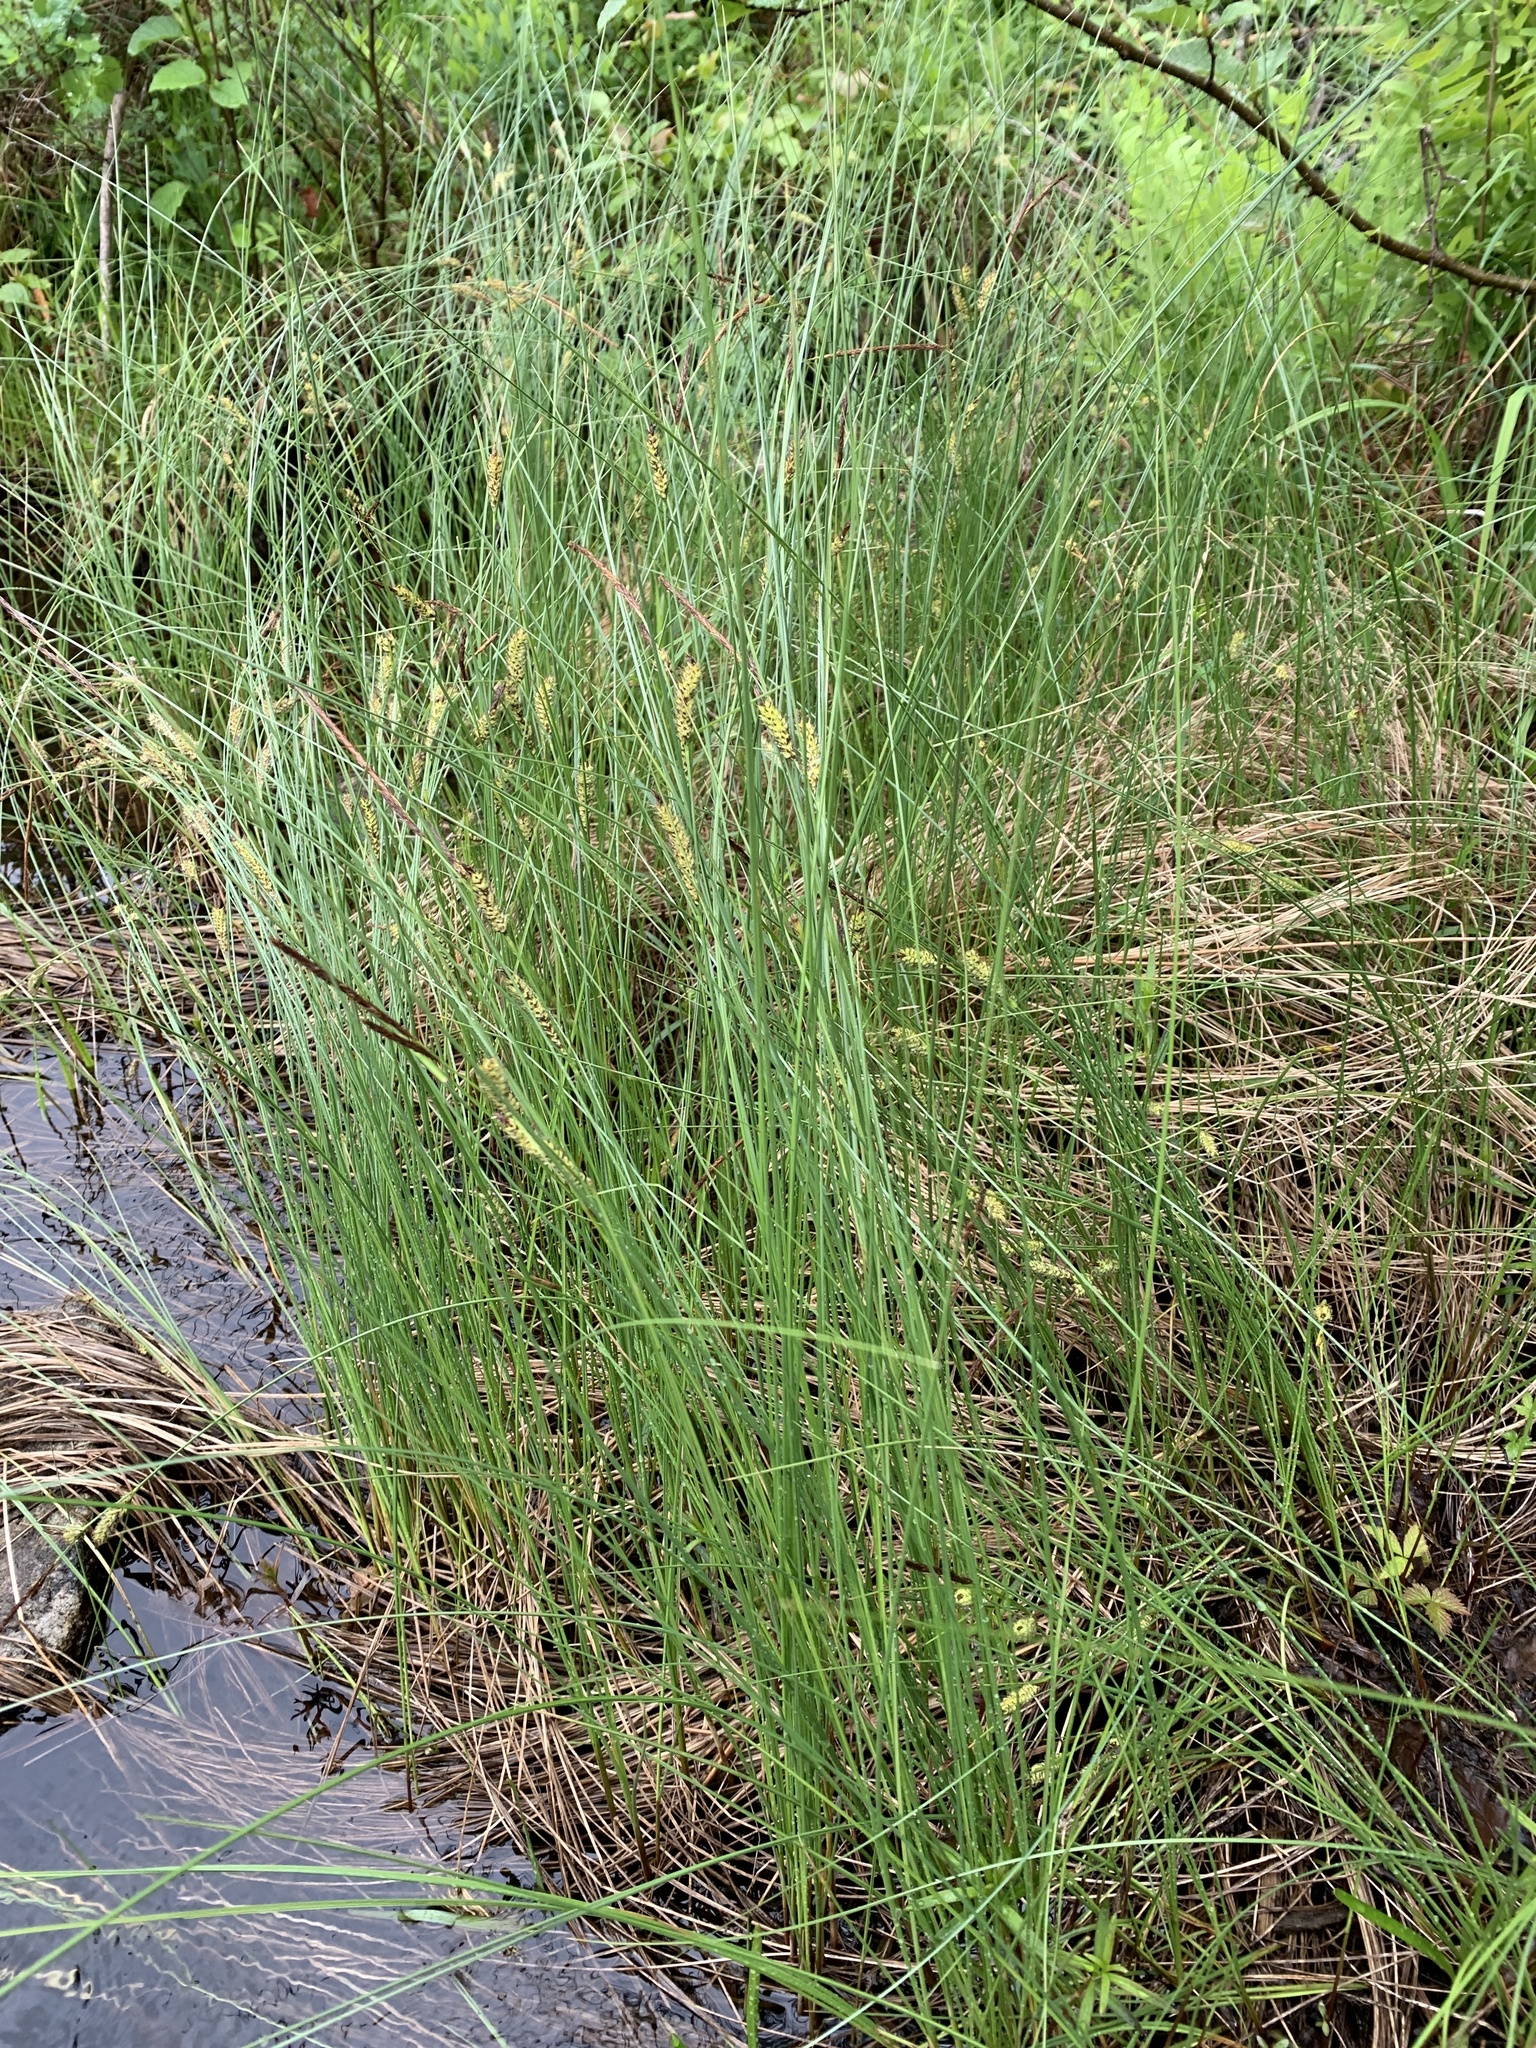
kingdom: Plantae
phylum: Tracheophyta
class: Liliopsida
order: Poales
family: Cyperaceae
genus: Carex
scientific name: Carex lasiocarpa
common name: Slender sedge
